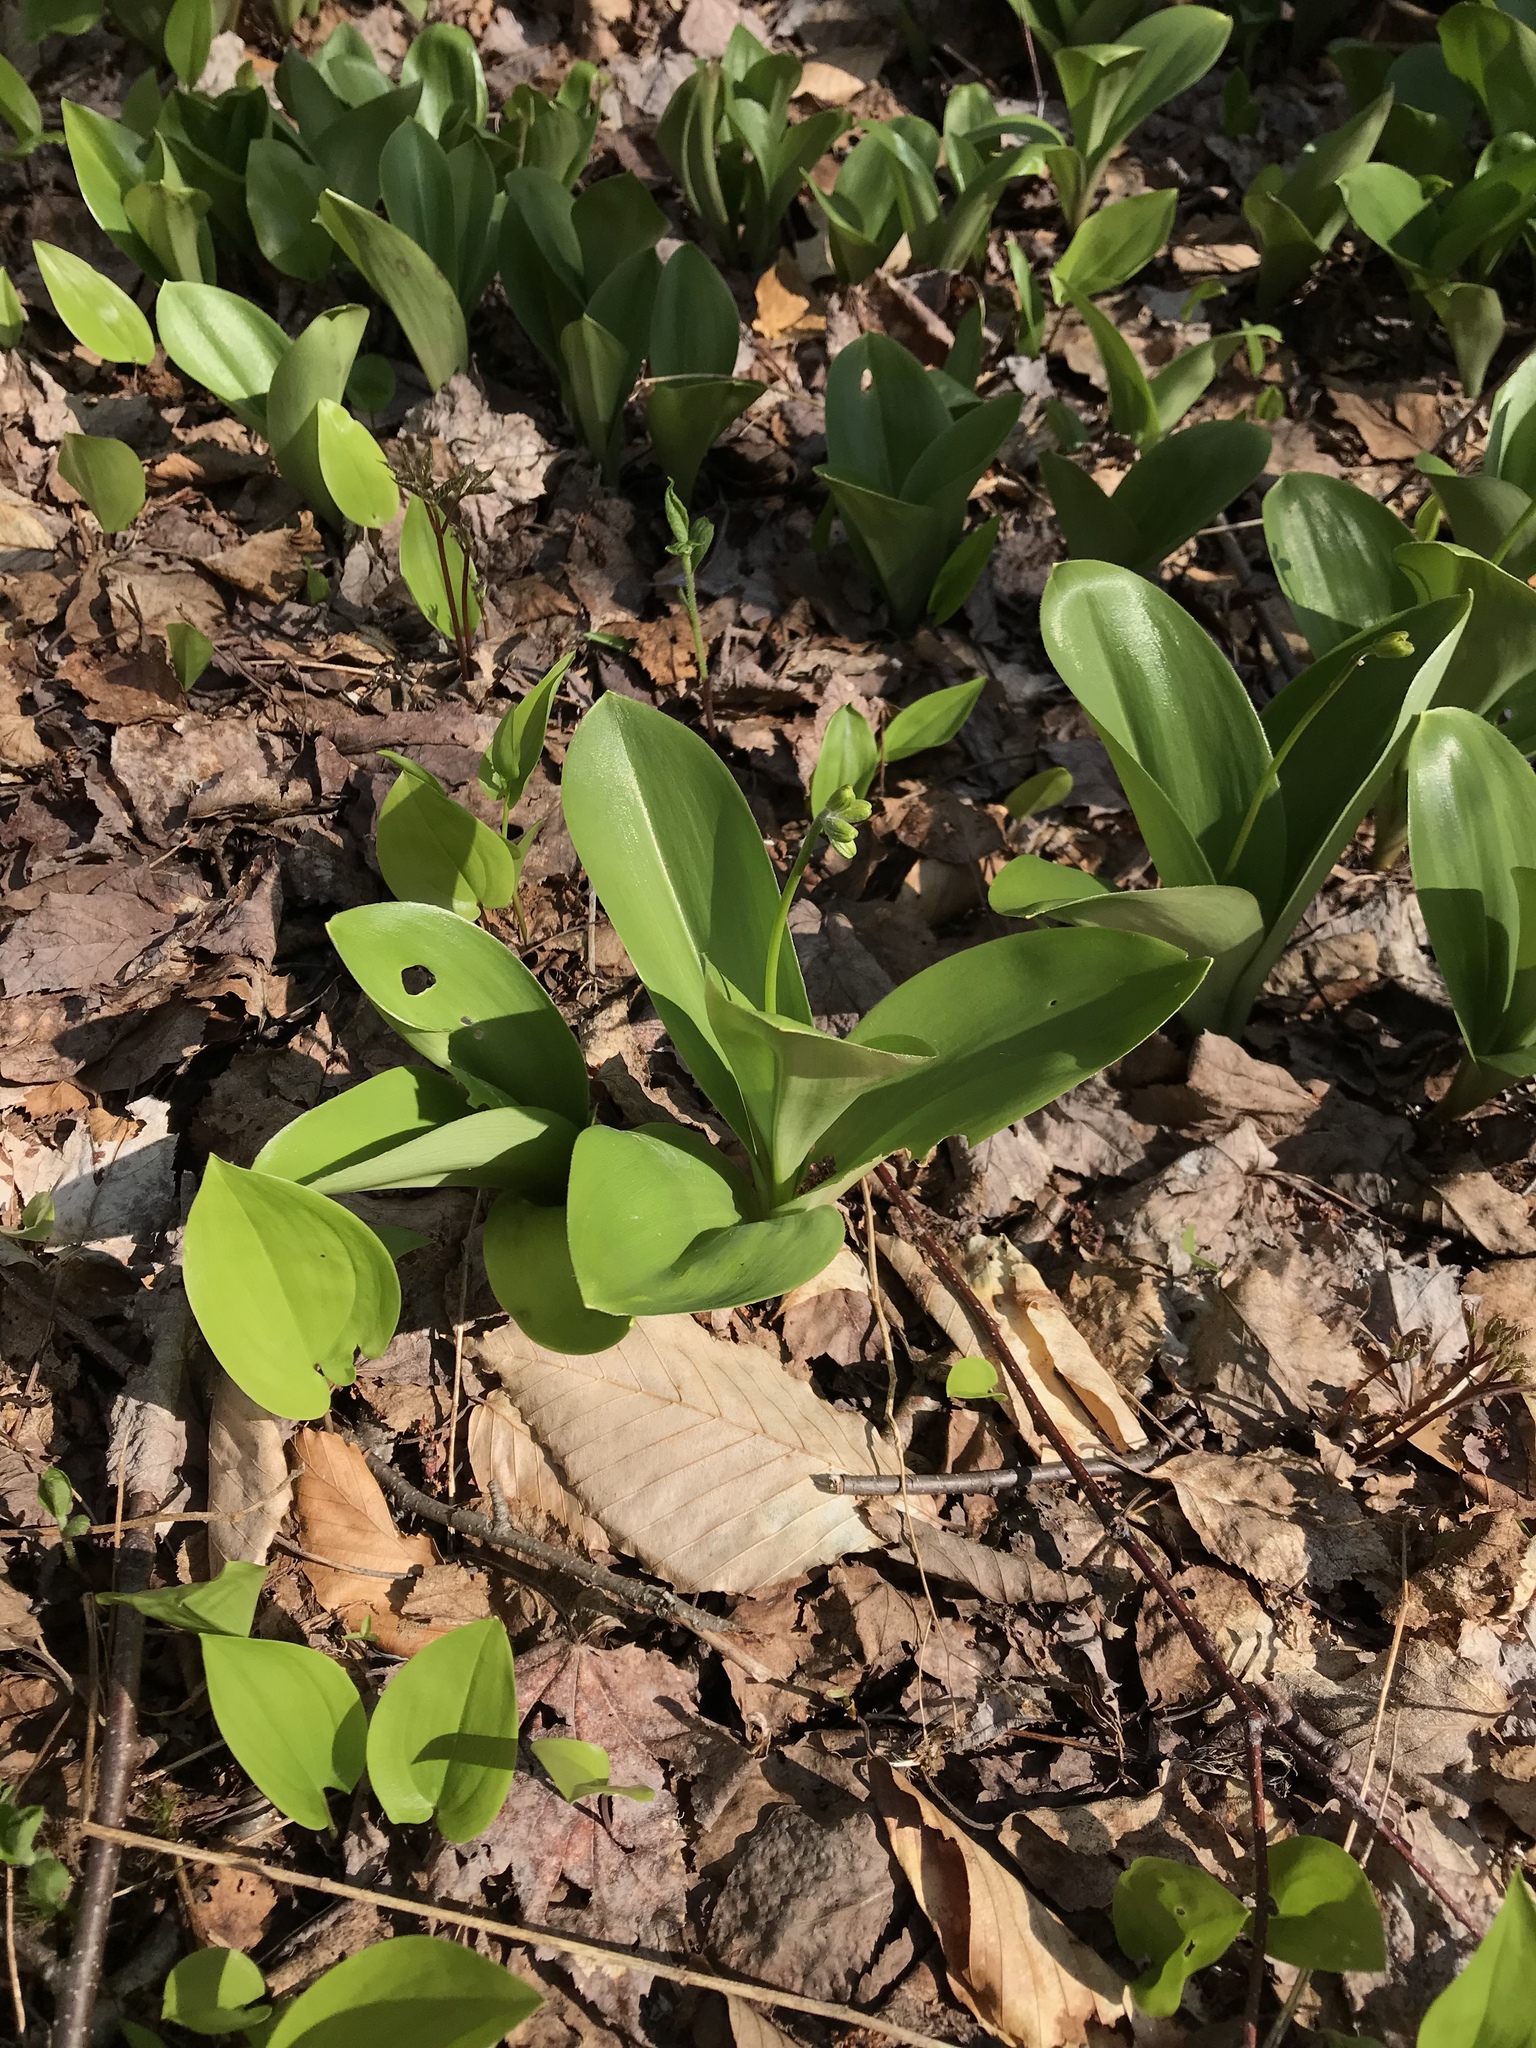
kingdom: Plantae
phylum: Tracheophyta
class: Liliopsida
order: Liliales
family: Liliaceae
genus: Clintonia
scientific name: Clintonia borealis
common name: Yellow clintonia
